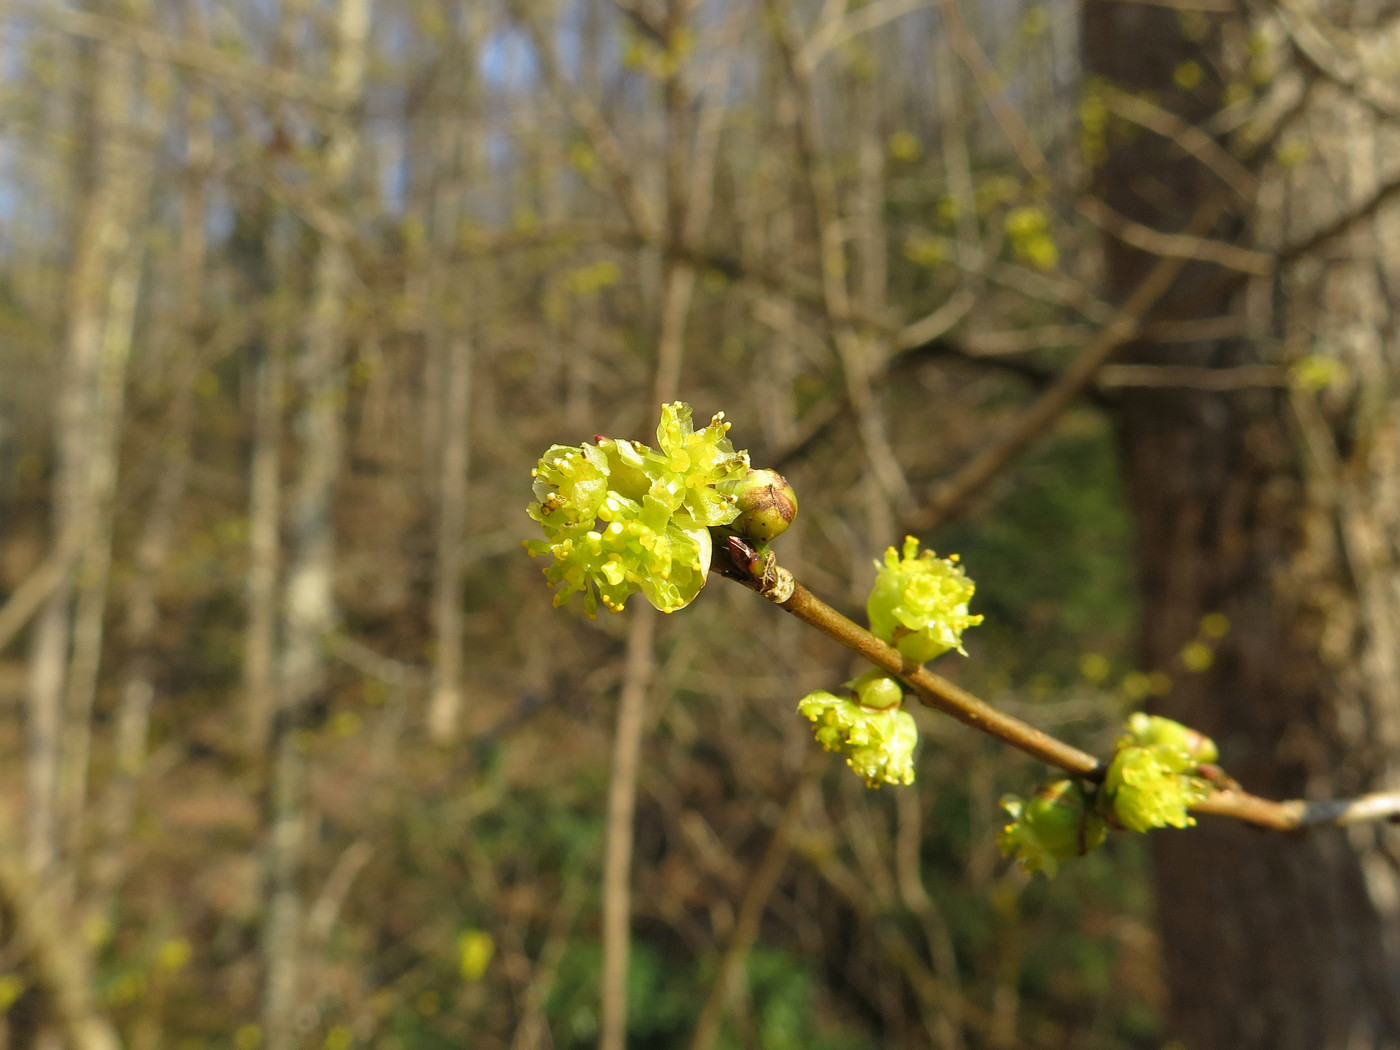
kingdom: Plantae
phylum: Tracheophyta
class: Magnoliopsida
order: Laurales
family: Lauraceae
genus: Lindera
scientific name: Lindera benzoin
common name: Spicebush
